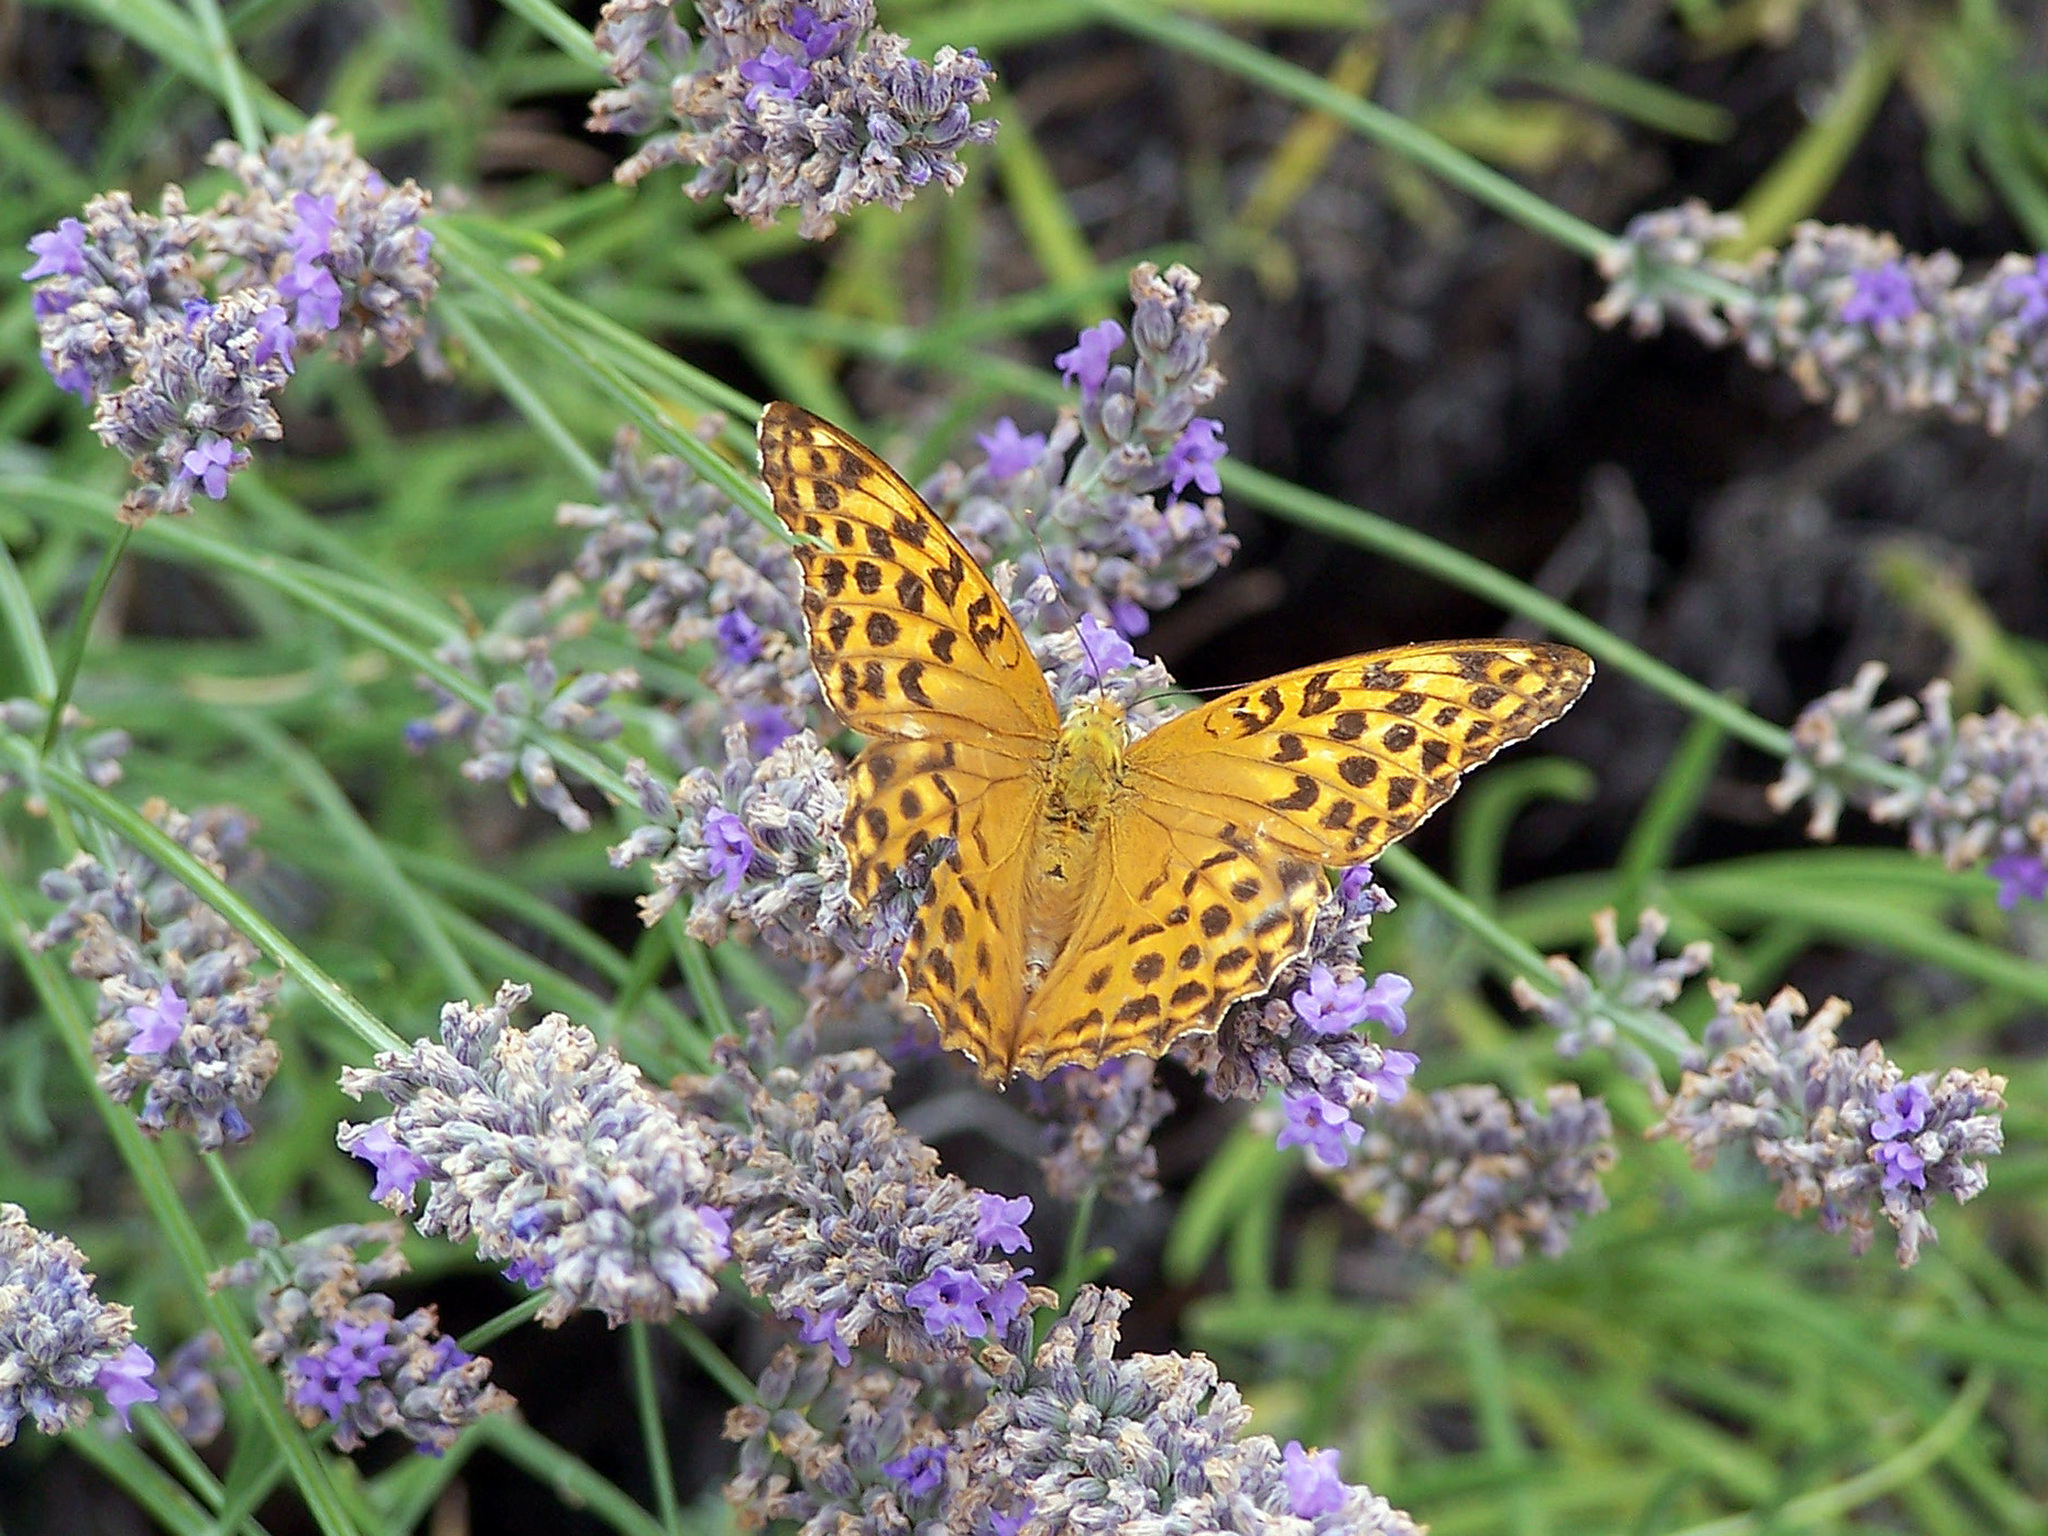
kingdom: Animalia
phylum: Arthropoda
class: Insecta
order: Lepidoptera
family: Nymphalidae
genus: Argynnis
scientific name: Argynnis paphia
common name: Silver-washed fritillary
